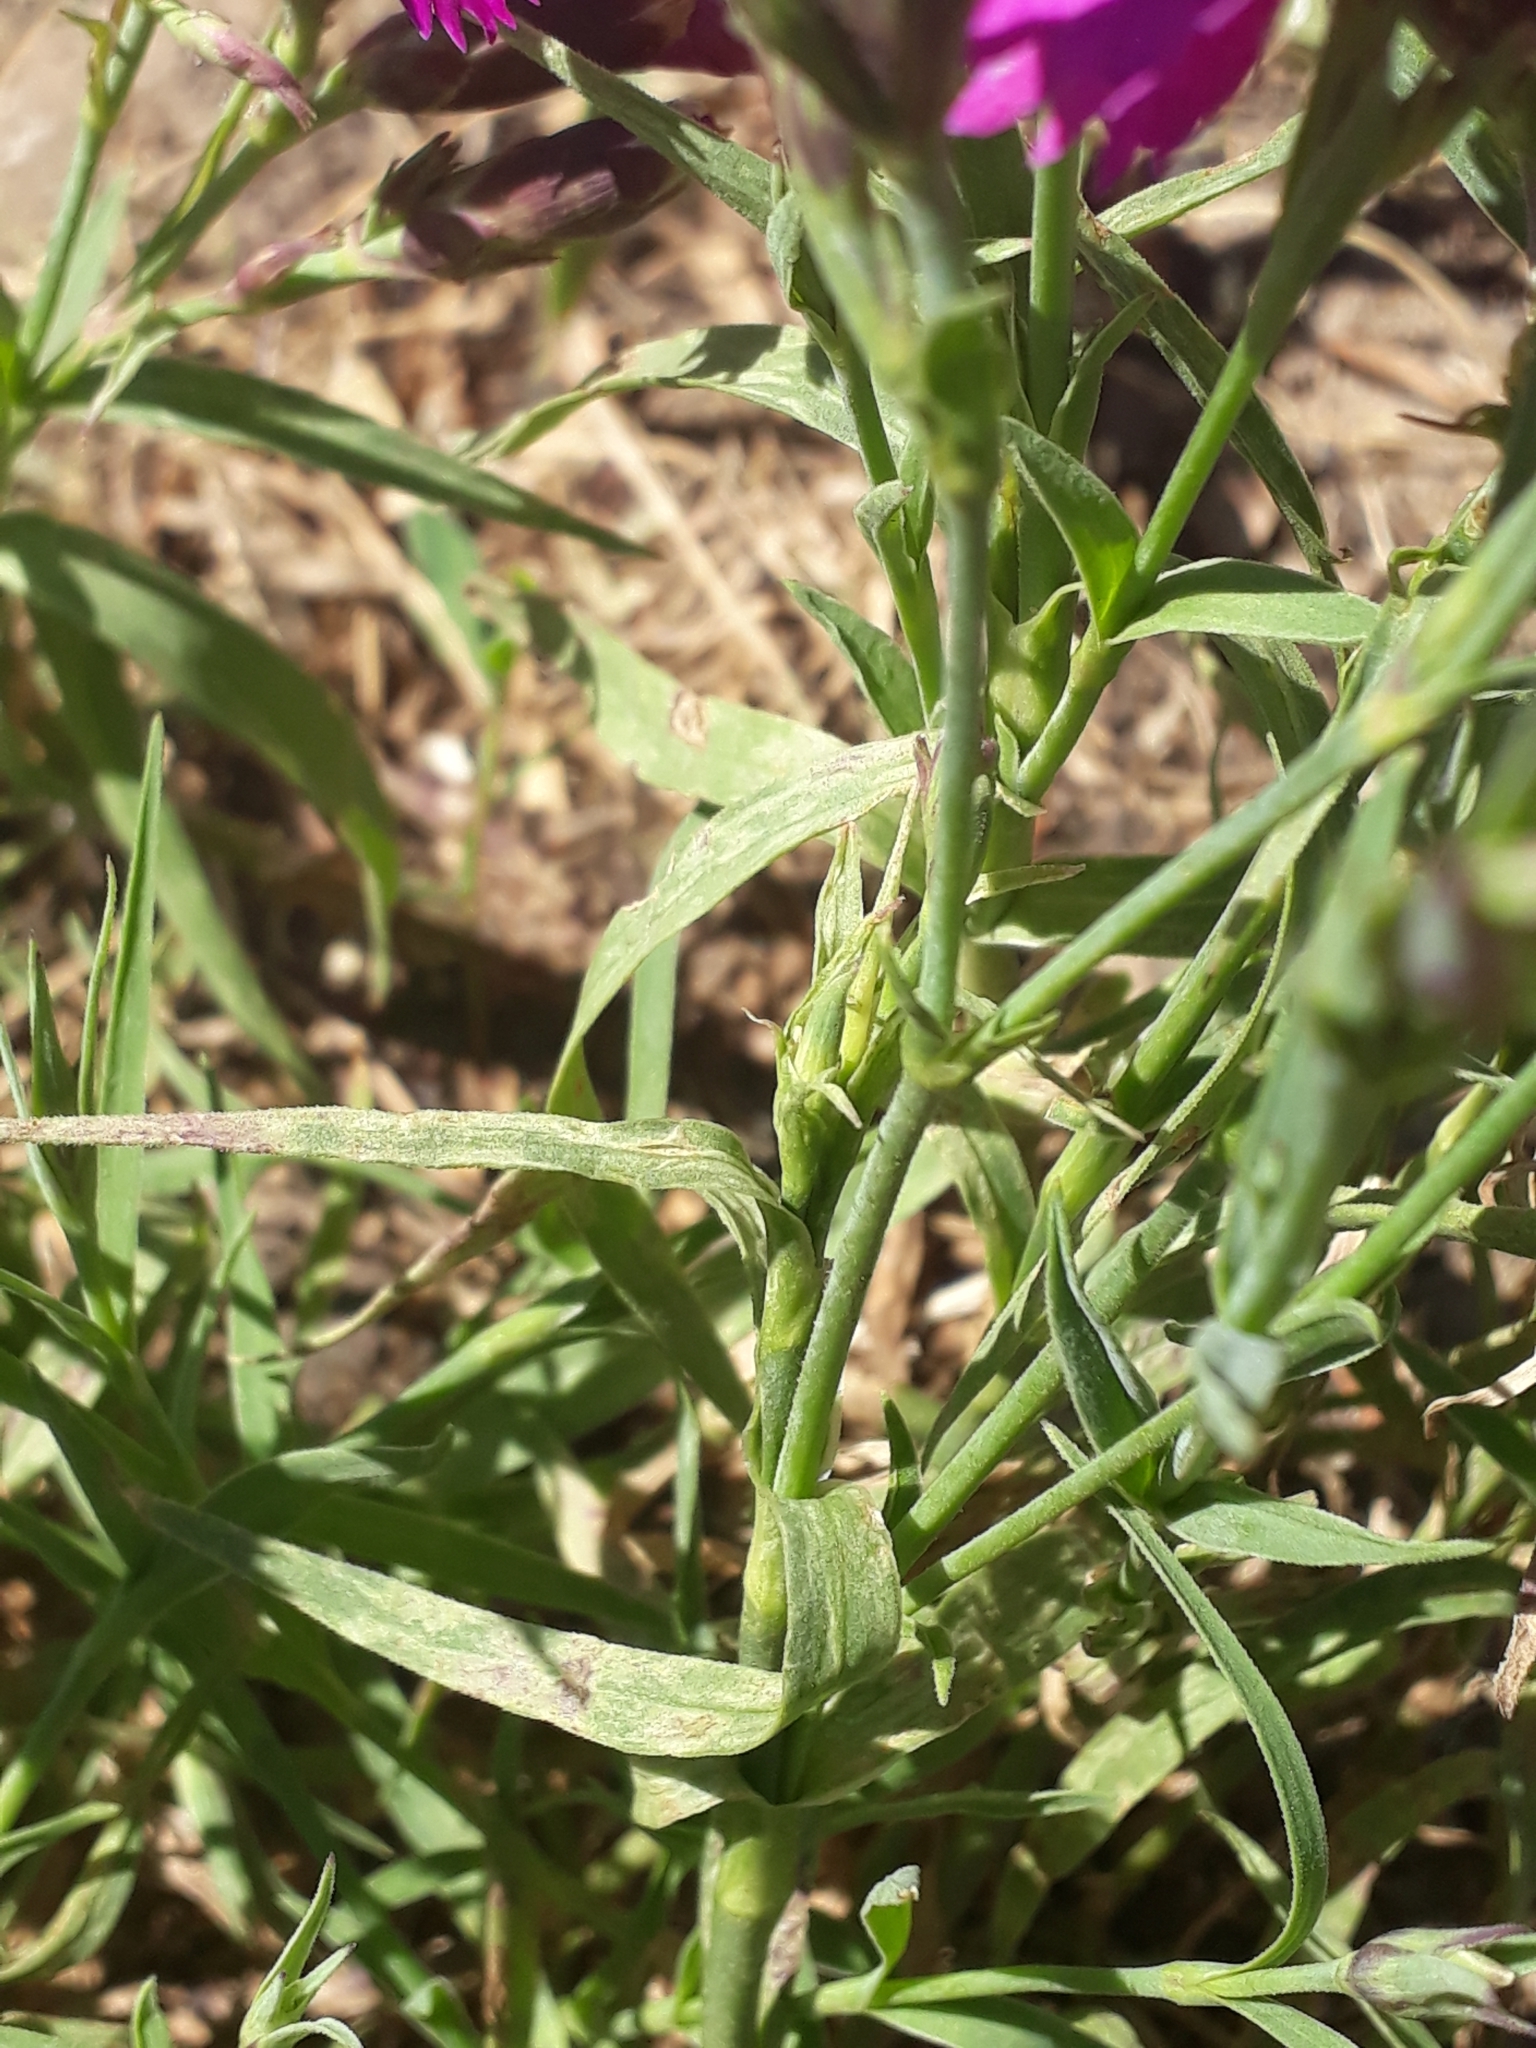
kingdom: Plantae
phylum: Tracheophyta
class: Magnoliopsida
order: Caryophyllales
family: Caryophyllaceae
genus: Dianthus
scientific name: Dianthus chinensis
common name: Rainbow pink
